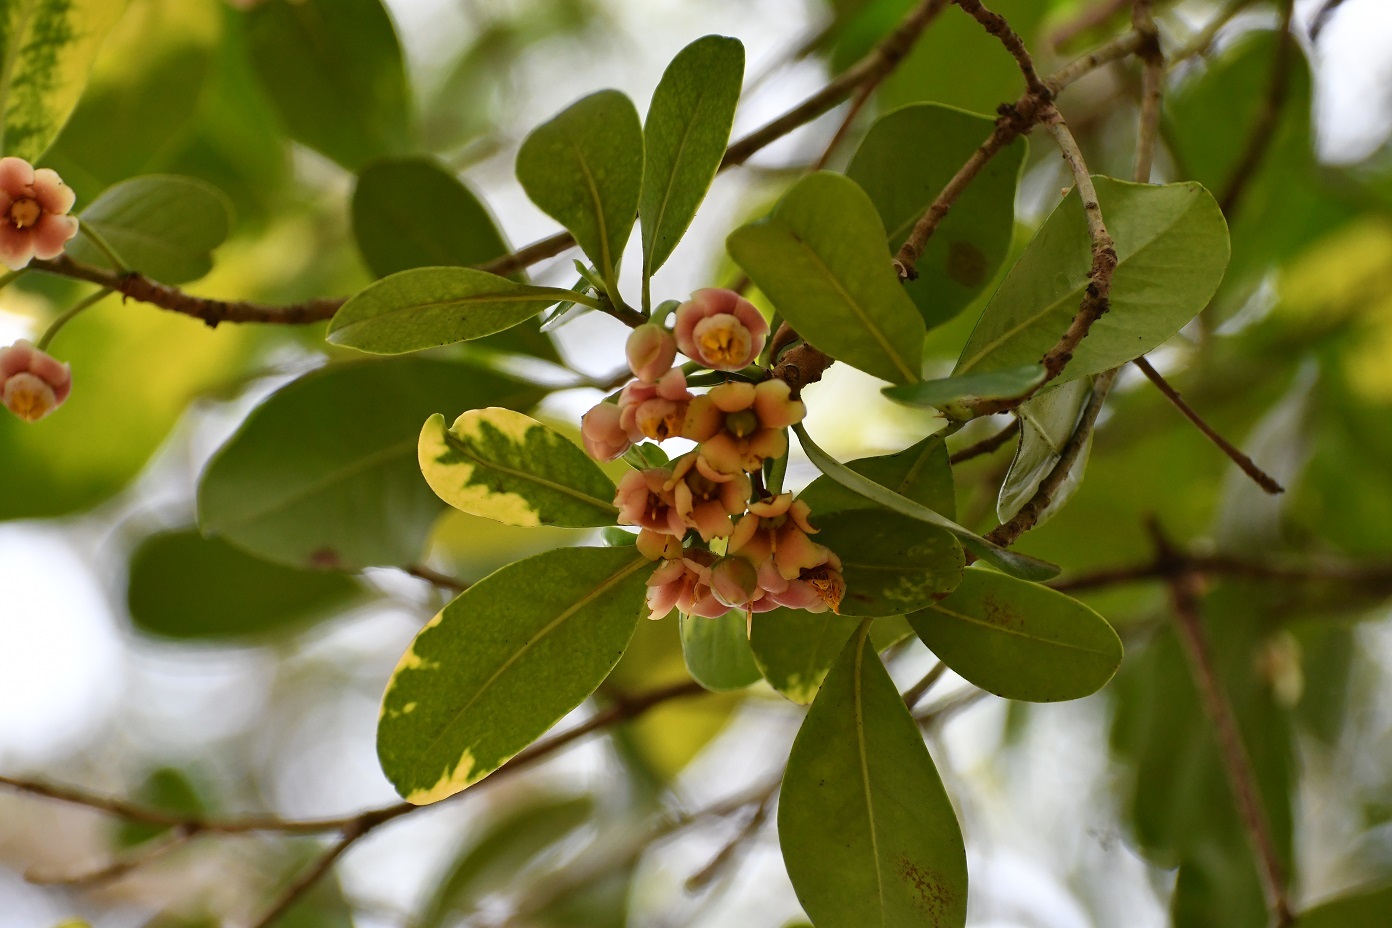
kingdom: Plantae
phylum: Tracheophyta
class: Magnoliopsida
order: Ericales
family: Pentaphylacaceae
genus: Ternstroemia
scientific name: Ternstroemia tepezapote
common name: Copey vera
